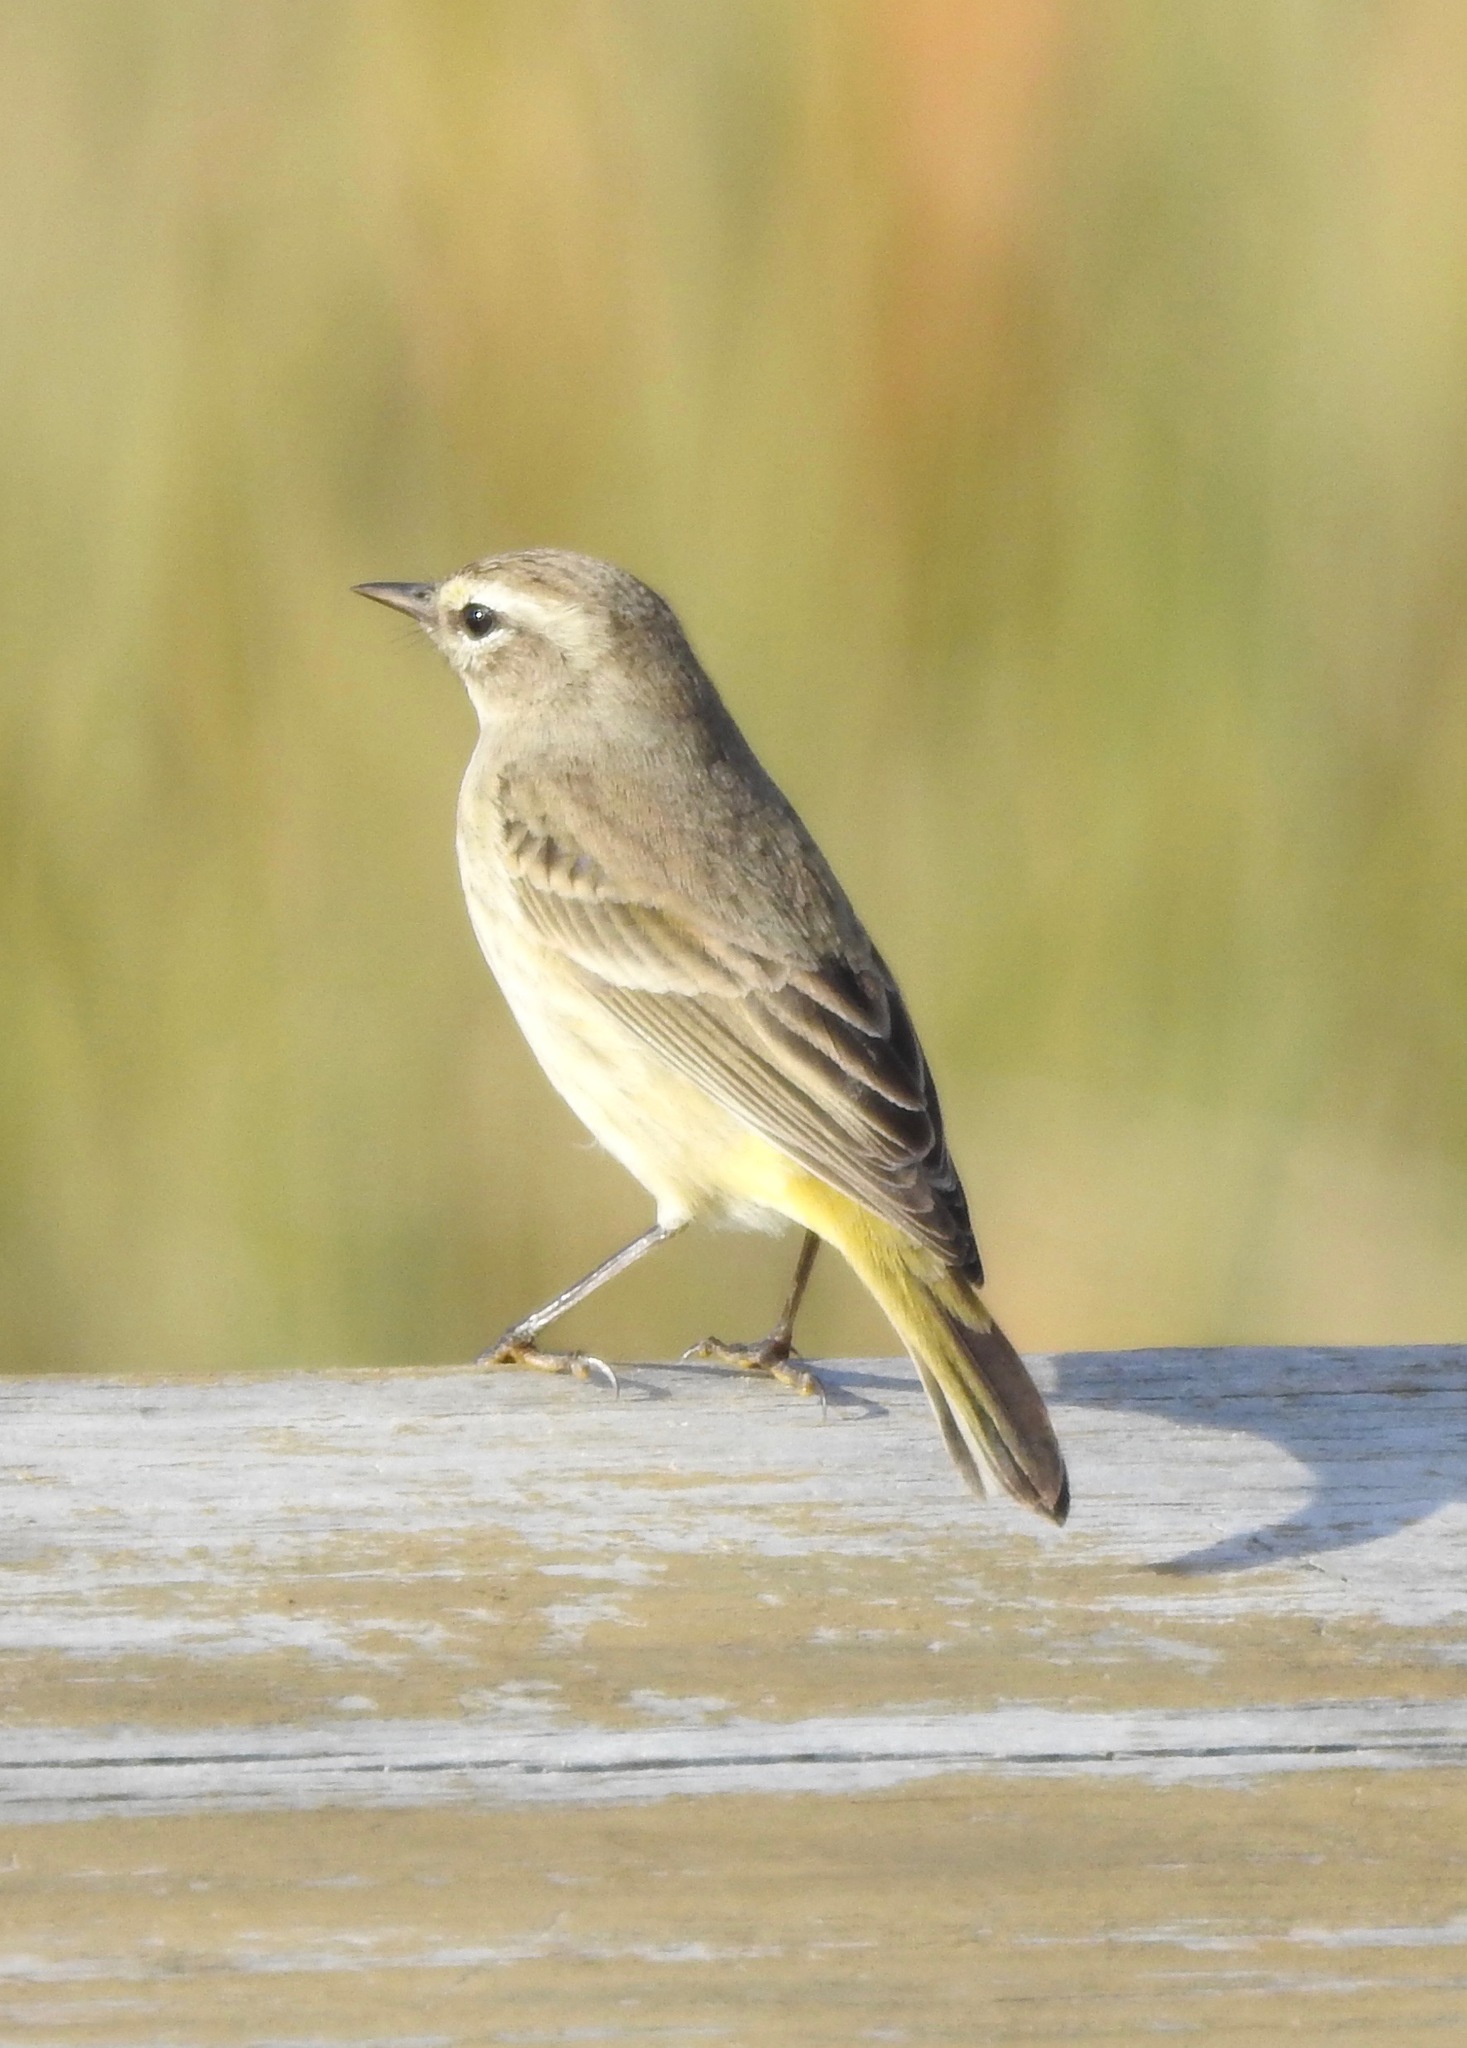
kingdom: Animalia
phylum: Chordata
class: Aves
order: Passeriformes
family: Parulidae
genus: Setophaga
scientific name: Setophaga palmarum
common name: Palm warbler
